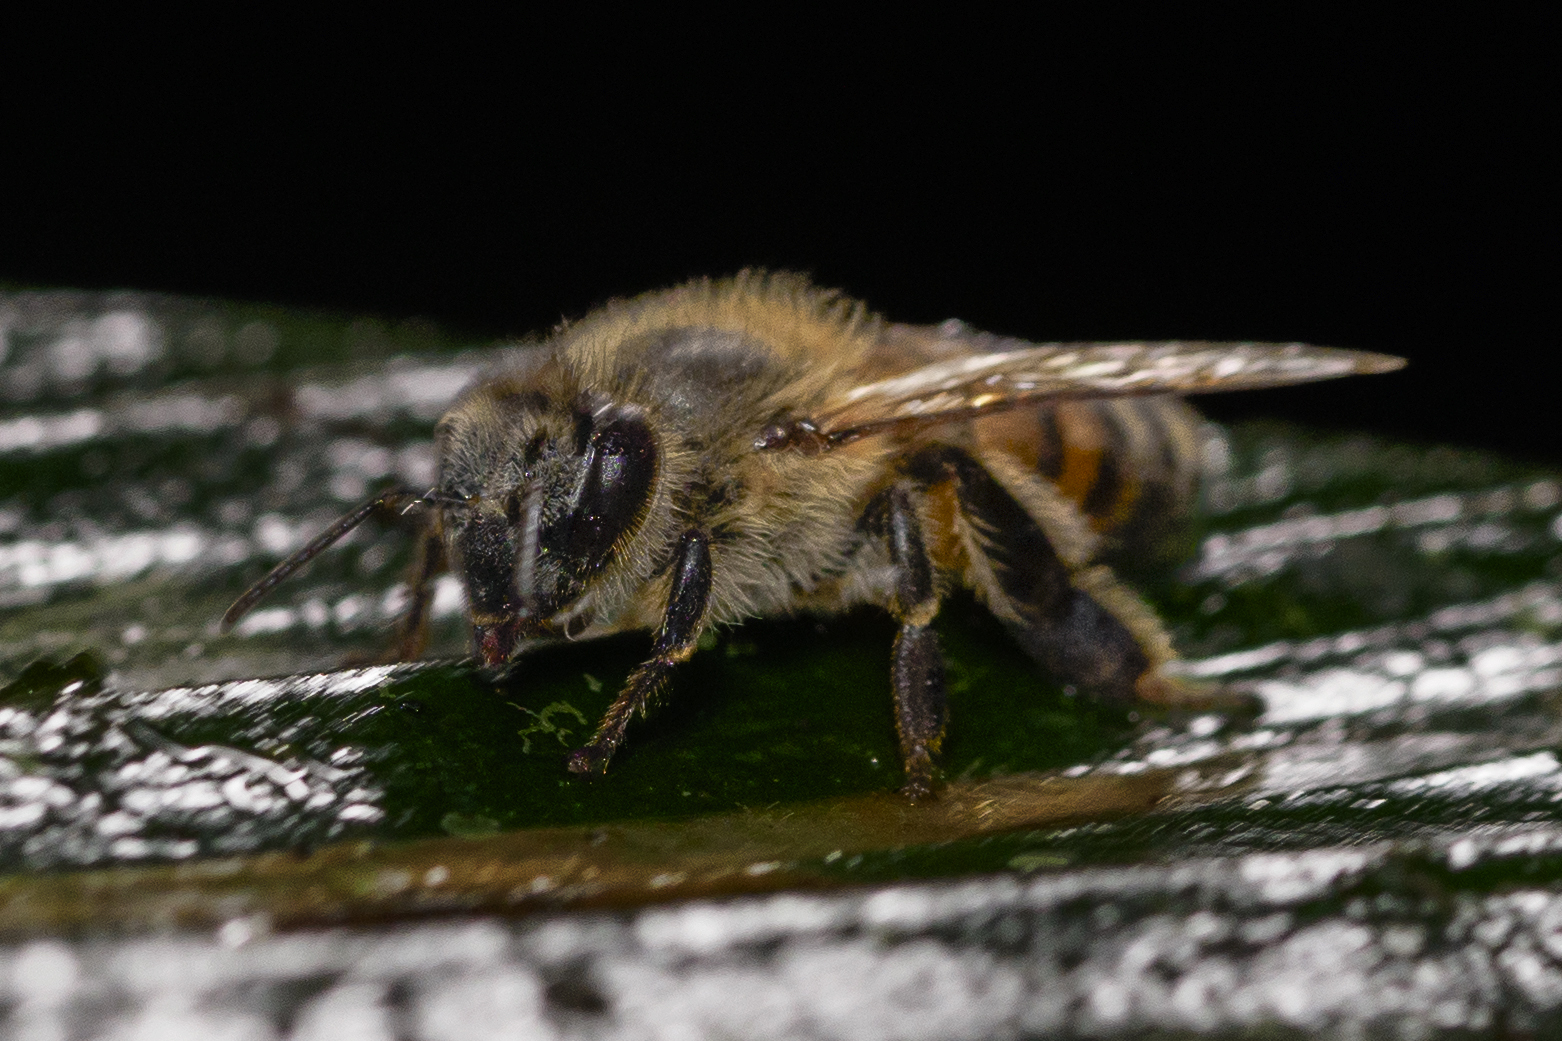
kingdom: Animalia
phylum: Arthropoda
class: Insecta
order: Hymenoptera
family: Apidae
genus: Apis
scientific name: Apis mellifera
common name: Honey bee
